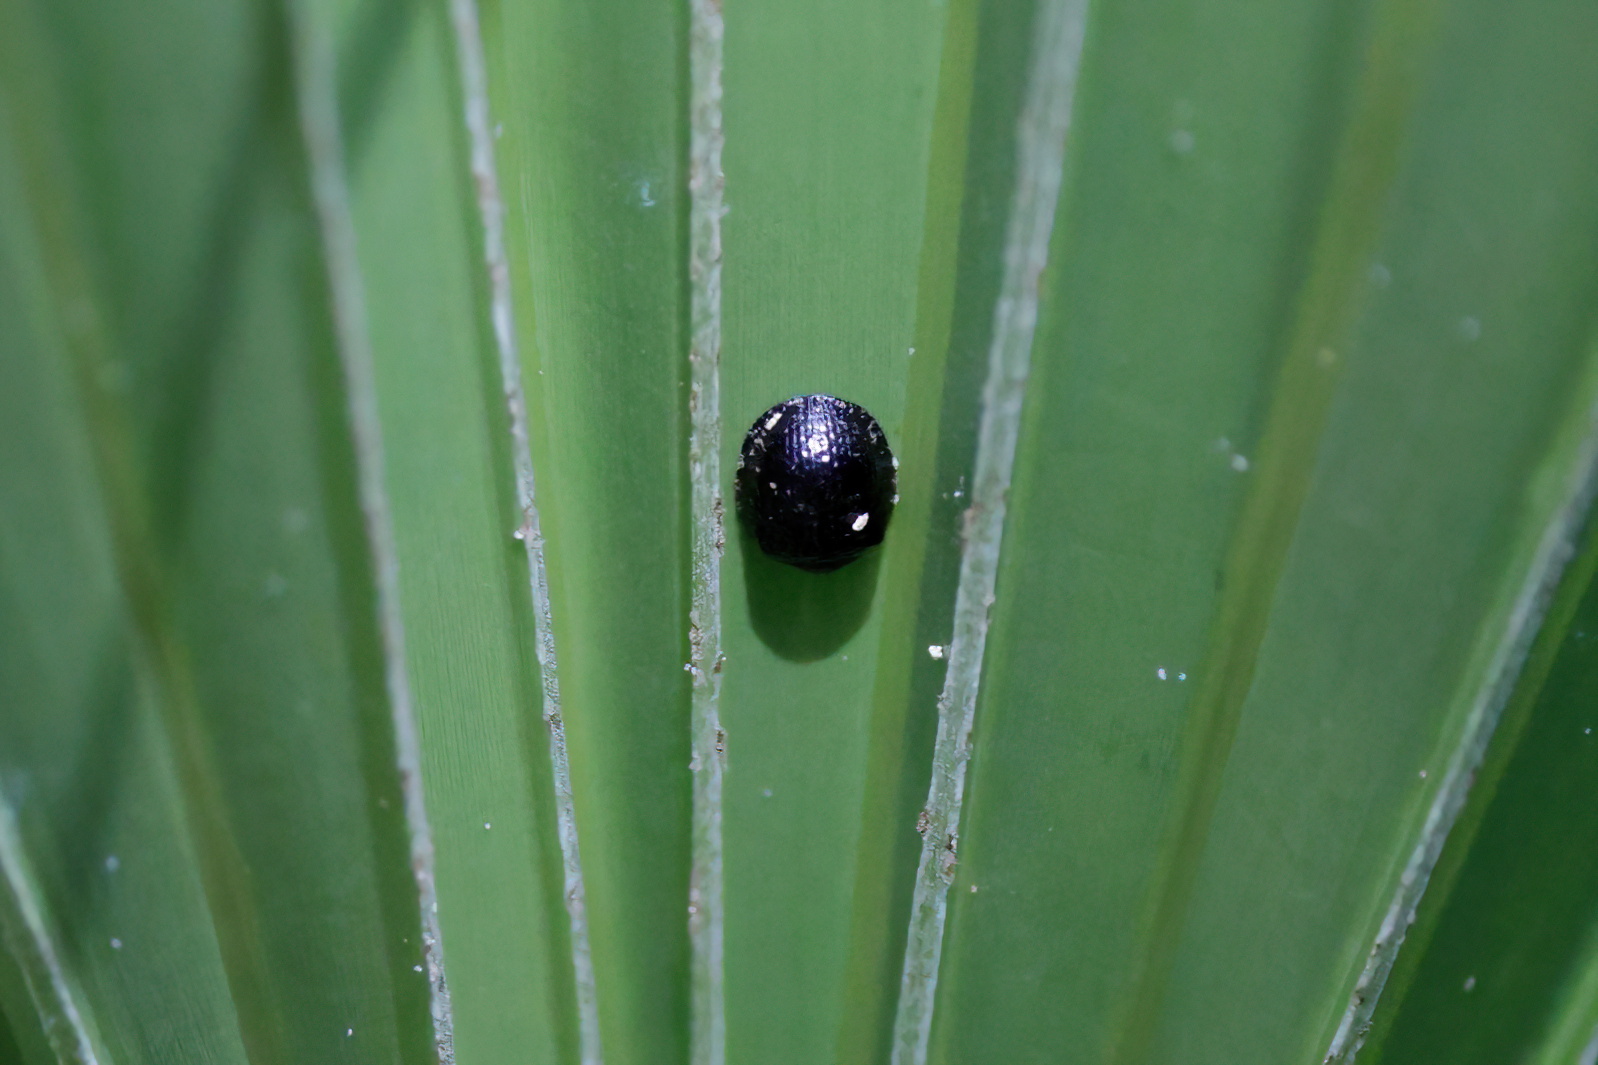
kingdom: Animalia
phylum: Arthropoda
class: Insecta
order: Coleoptera
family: Chrysomelidae
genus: Hemisphaerota
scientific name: Hemisphaerota cyanea
